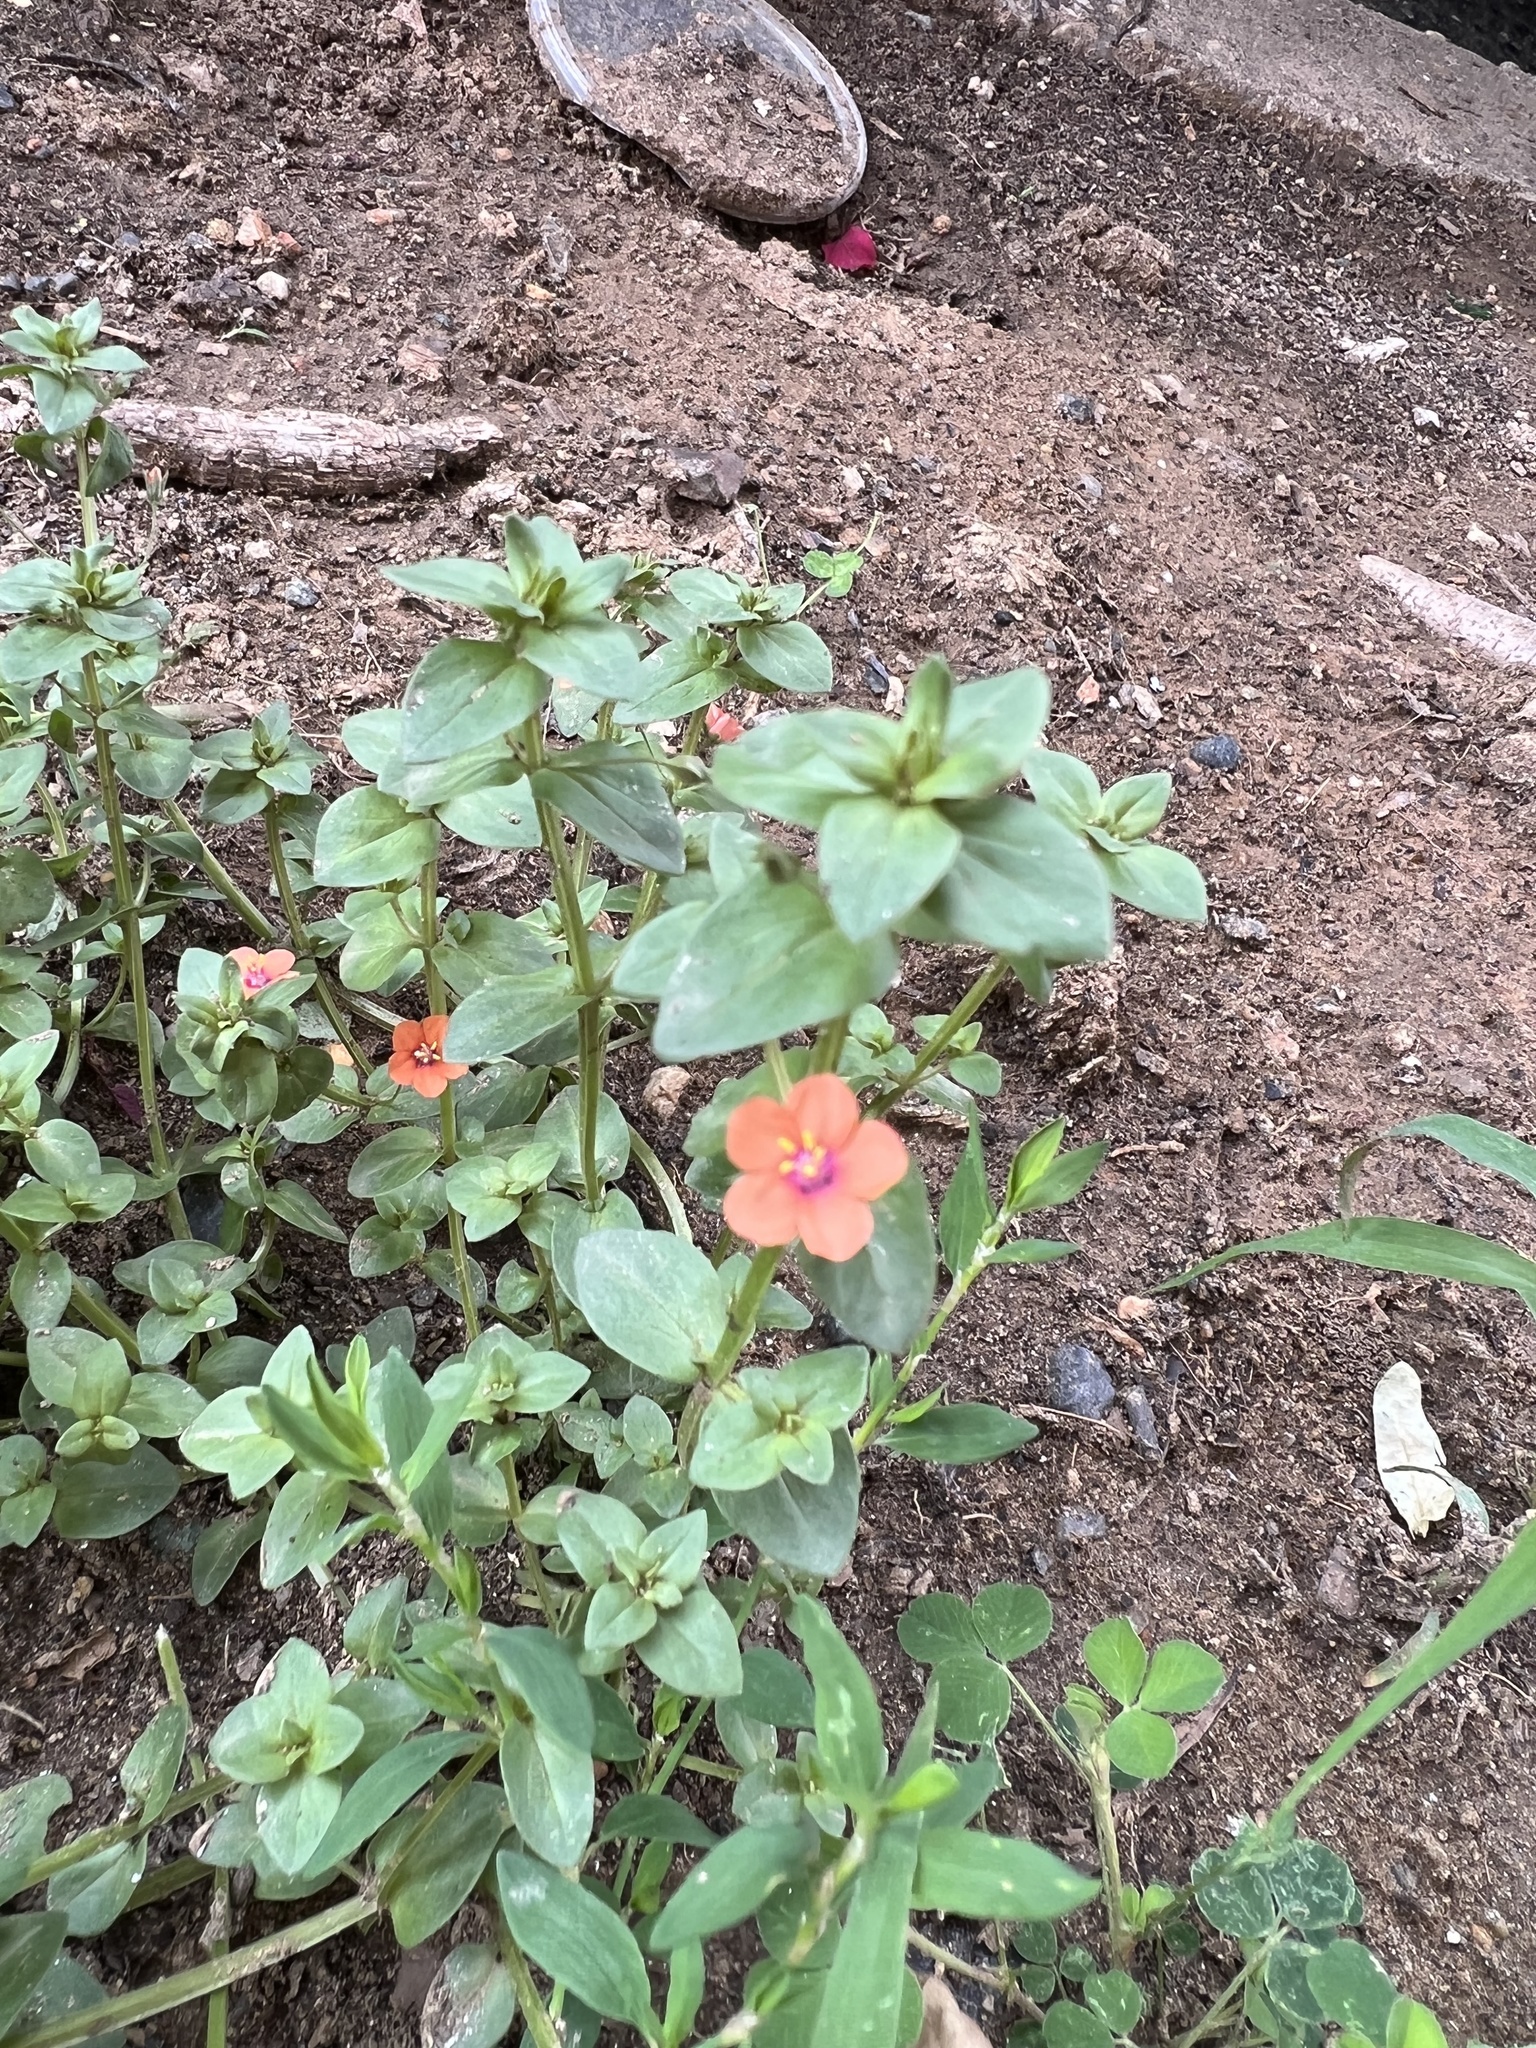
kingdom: Plantae
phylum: Tracheophyta
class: Magnoliopsida
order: Ericales
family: Primulaceae
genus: Lysimachia
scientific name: Lysimachia arvensis
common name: Scarlet pimpernel
